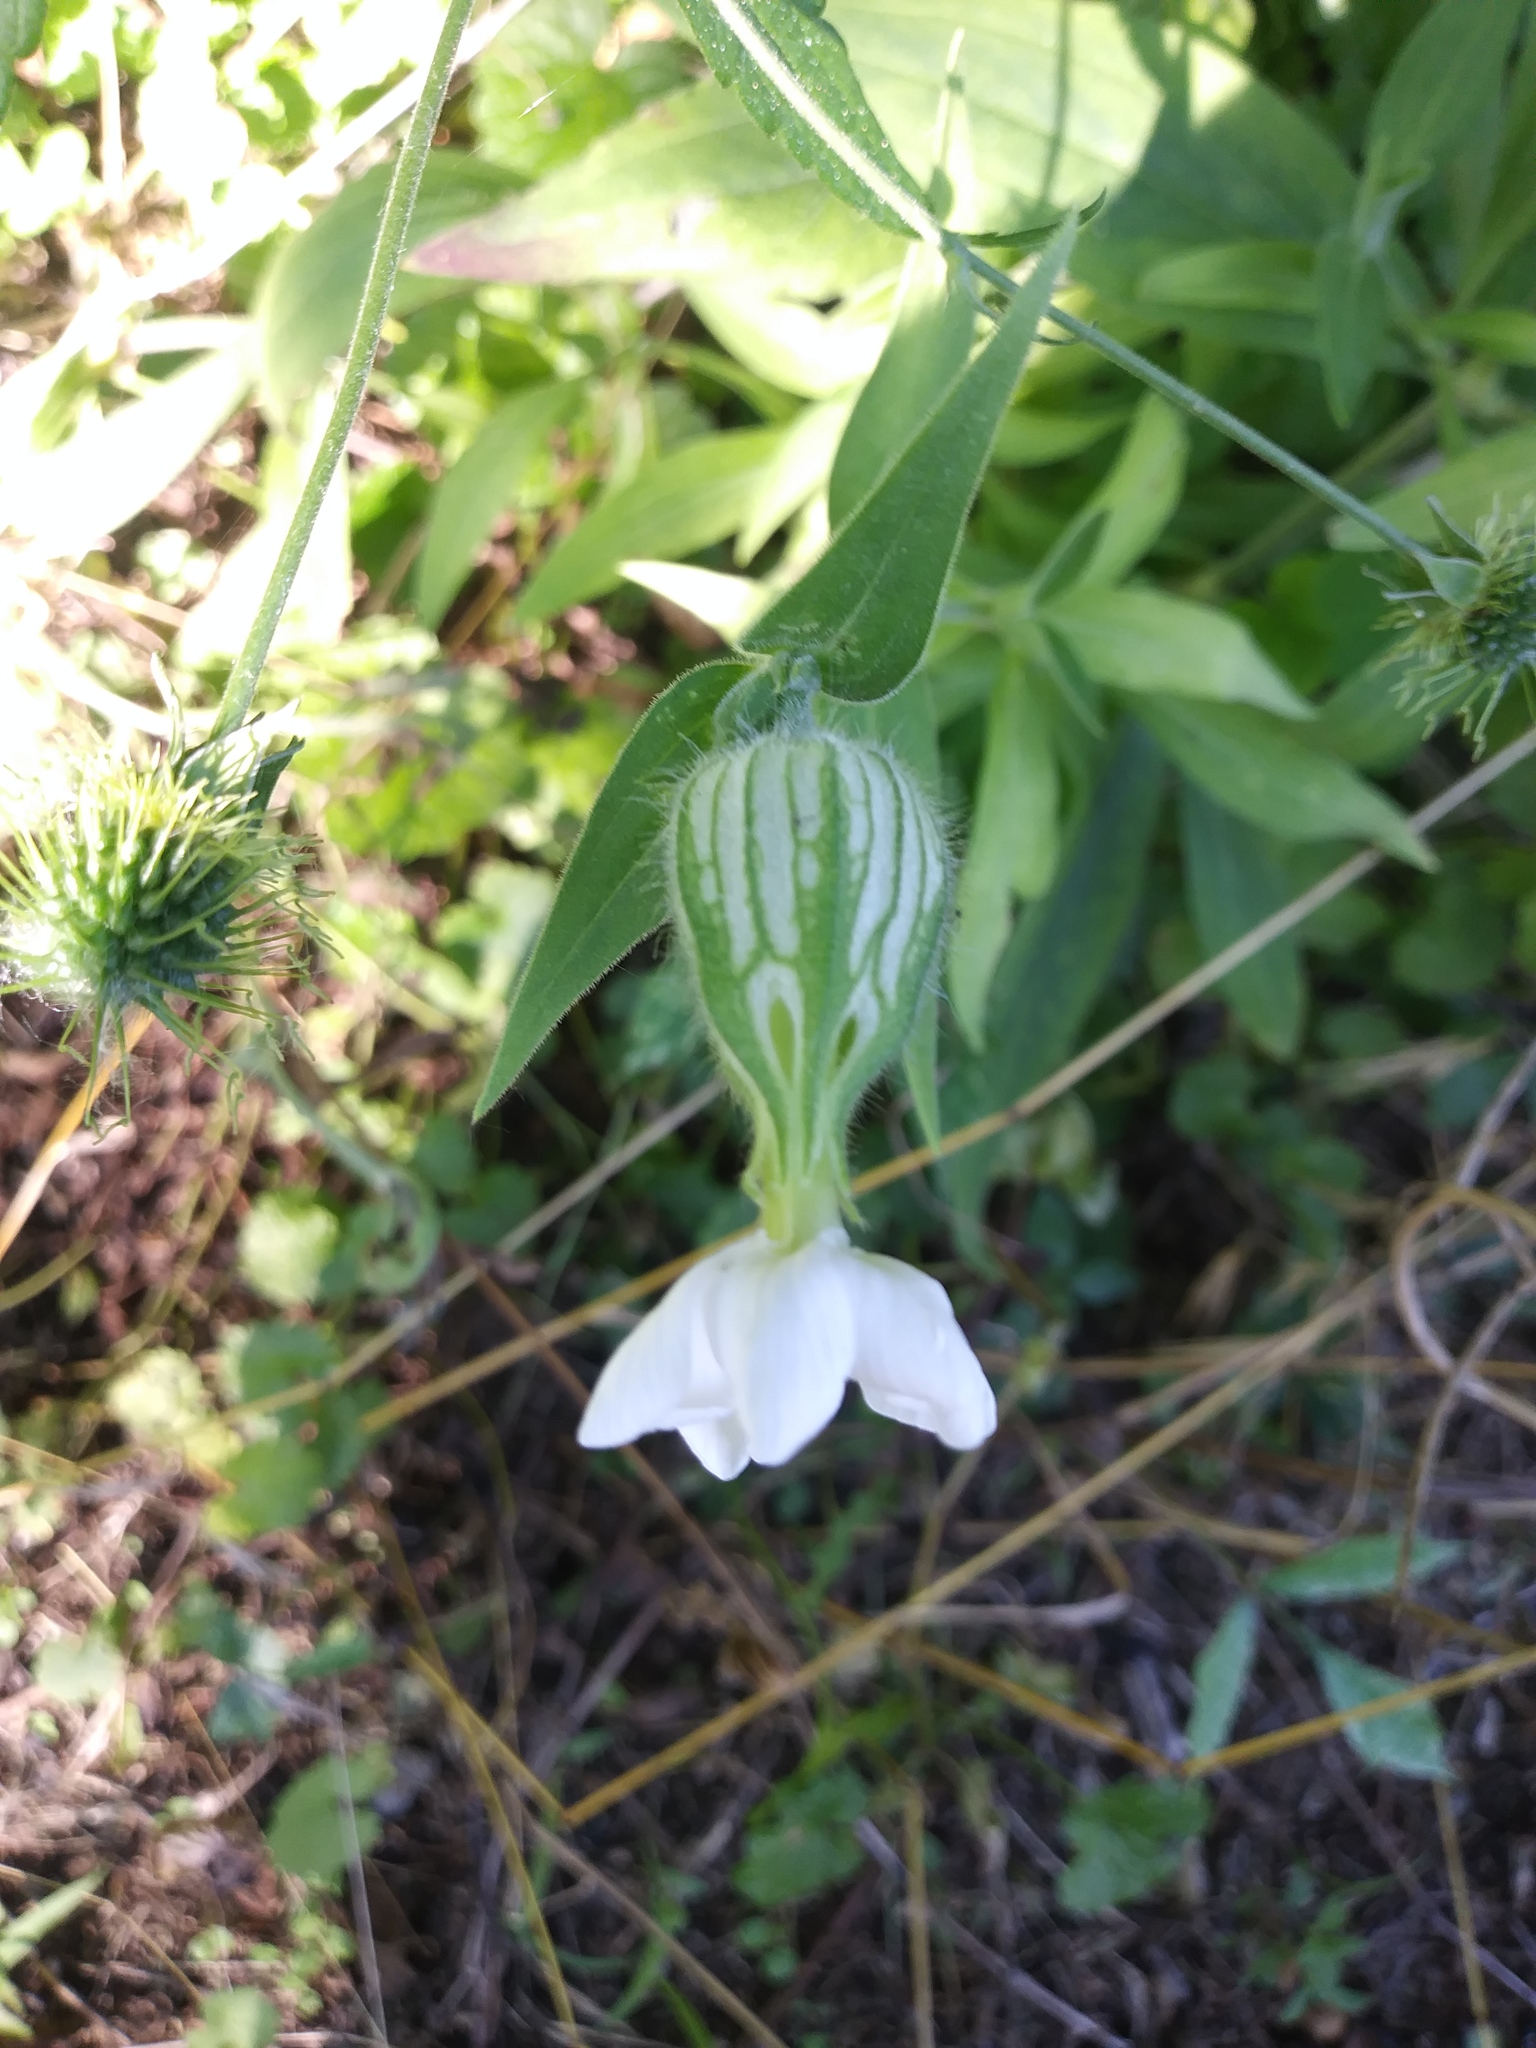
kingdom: Plantae
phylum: Tracheophyta
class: Magnoliopsida
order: Caryophyllales
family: Caryophyllaceae
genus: Silene
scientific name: Silene latifolia
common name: White campion
